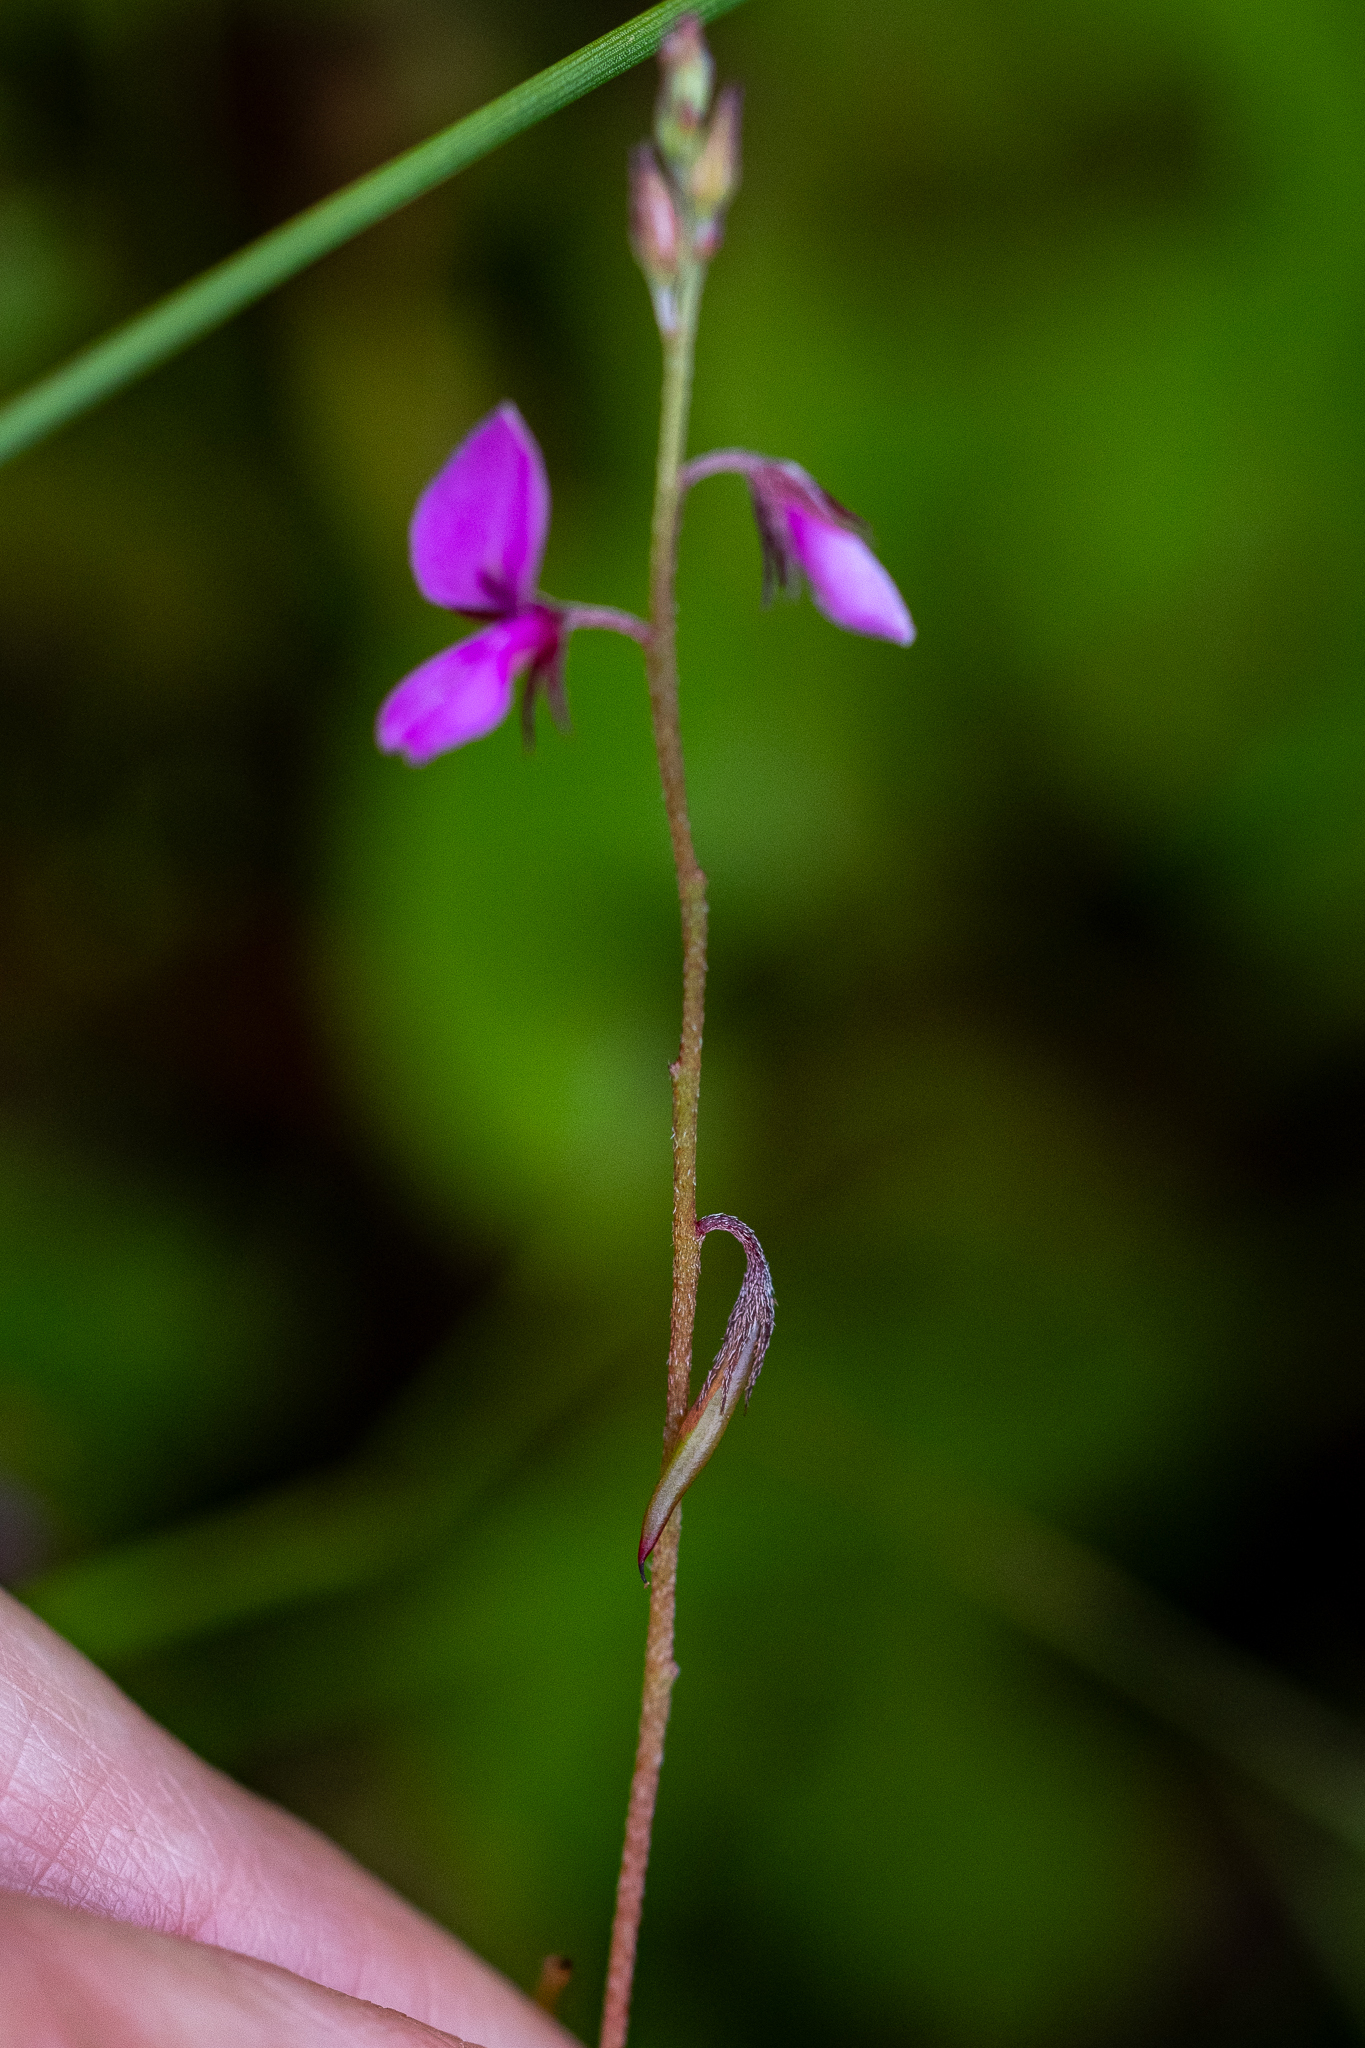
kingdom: Plantae
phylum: Tracheophyta
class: Magnoliopsida
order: Fabales
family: Fabaceae
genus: Indigofera
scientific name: Indigofera sarmentosa
